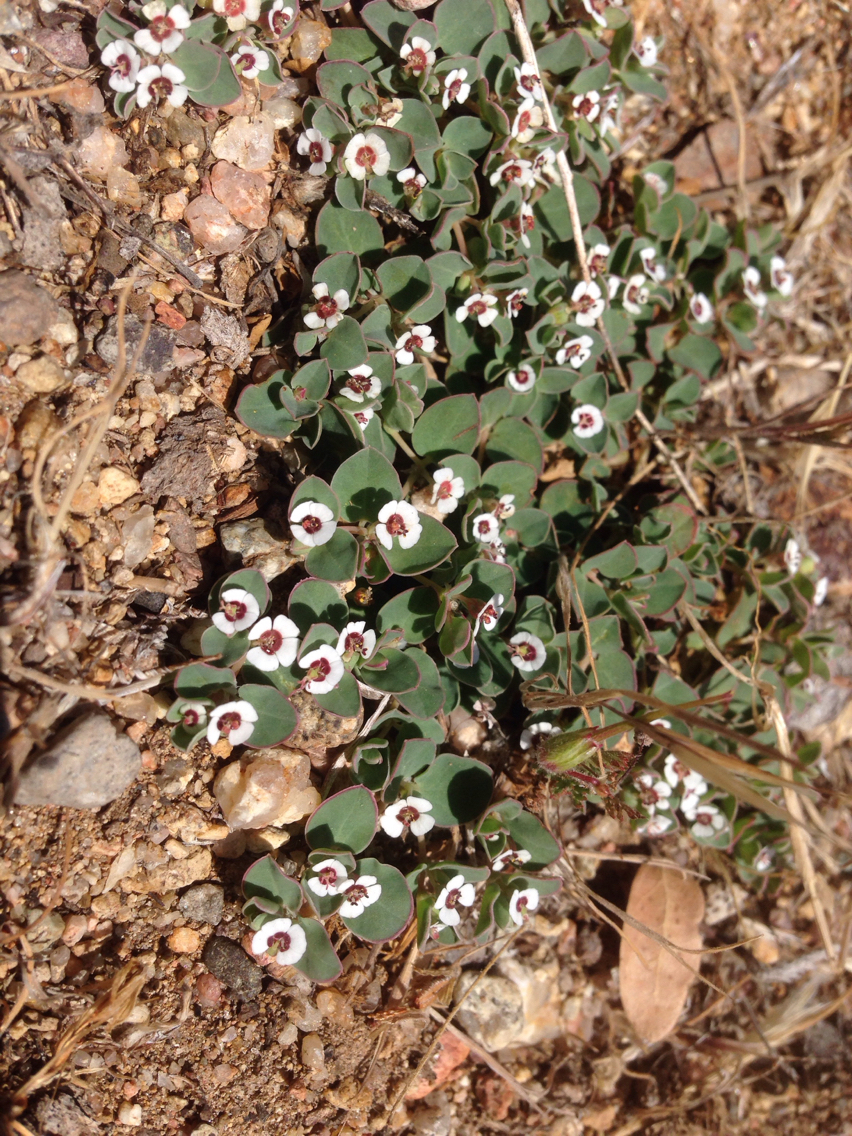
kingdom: Plantae
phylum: Tracheophyta
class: Magnoliopsida
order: Malpighiales
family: Euphorbiaceae
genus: Euphorbia
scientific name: Euphorbia albomarginata
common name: Whitemargin sandmat
